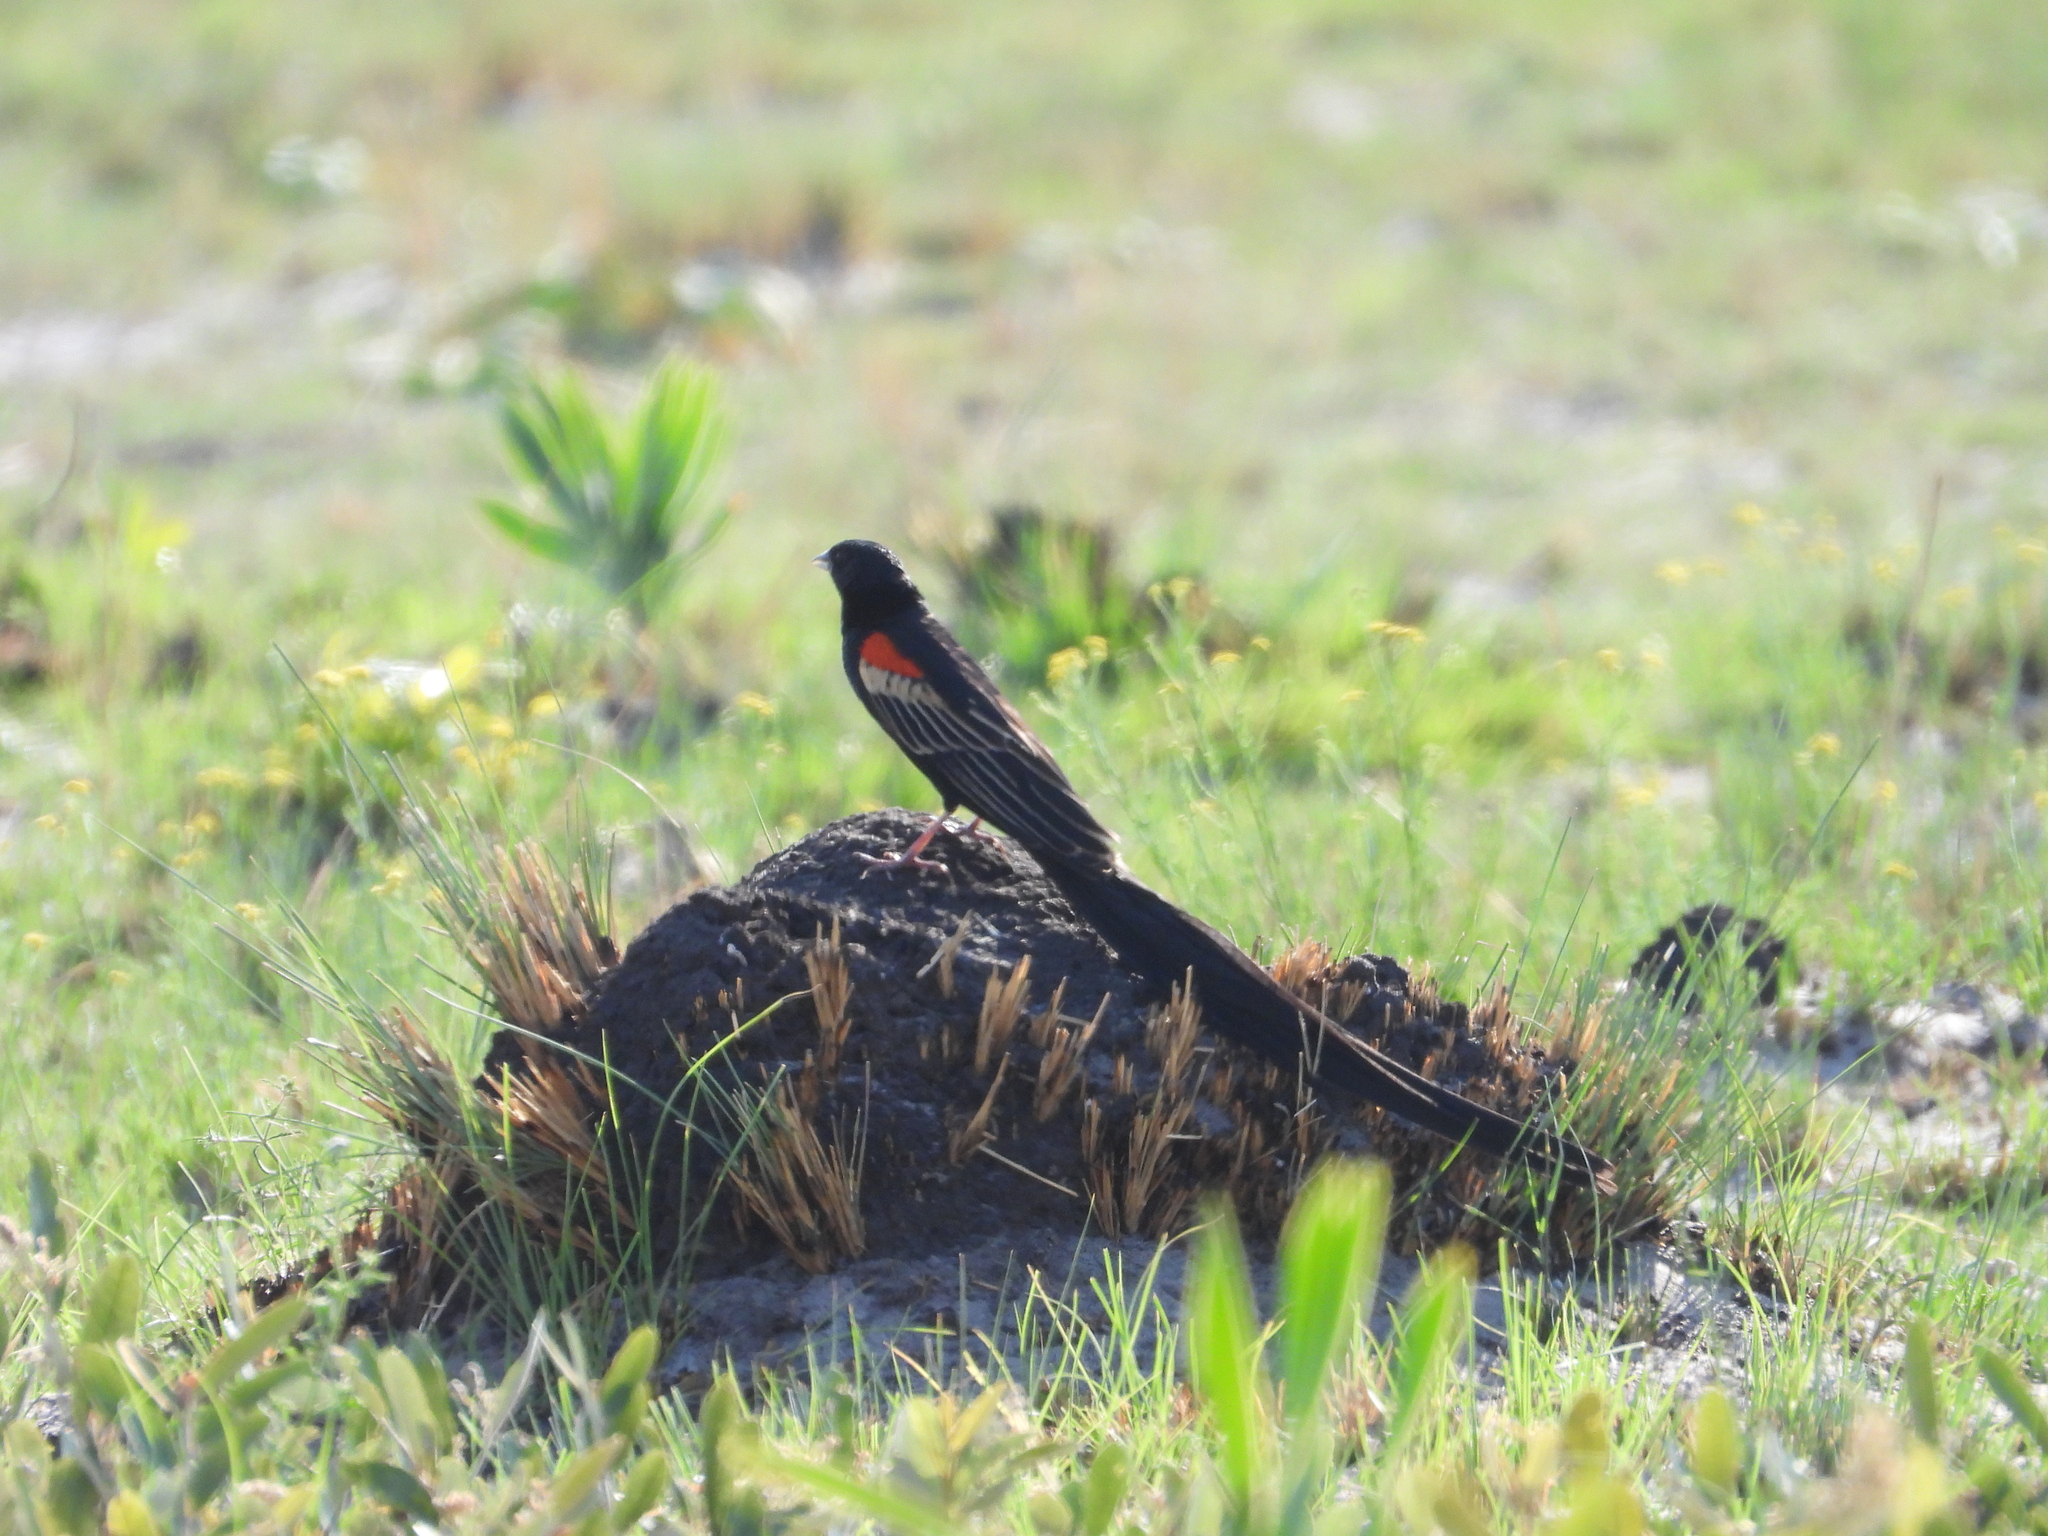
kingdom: Animalia
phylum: Chordata
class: Aves
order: Passeriformes
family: Ploceidae
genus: Euplectes
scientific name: Euplectes progne
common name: Long-tailed widowbird
